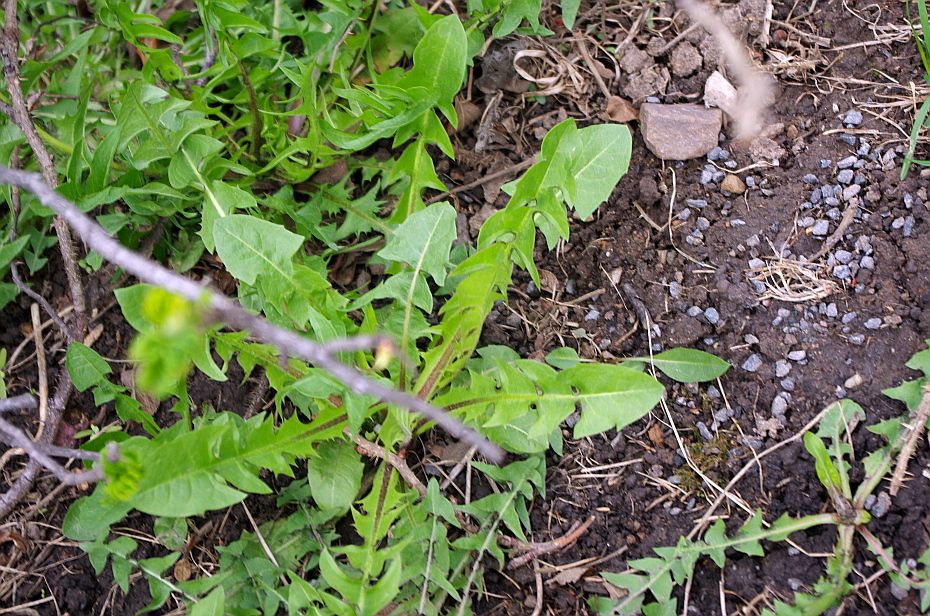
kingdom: Plantae
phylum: Tracheophyta
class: Magnoliopsida
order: Asterales
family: Asteraceae
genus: Taraxacum
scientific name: Taraxacum officinale
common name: Common dandelion
